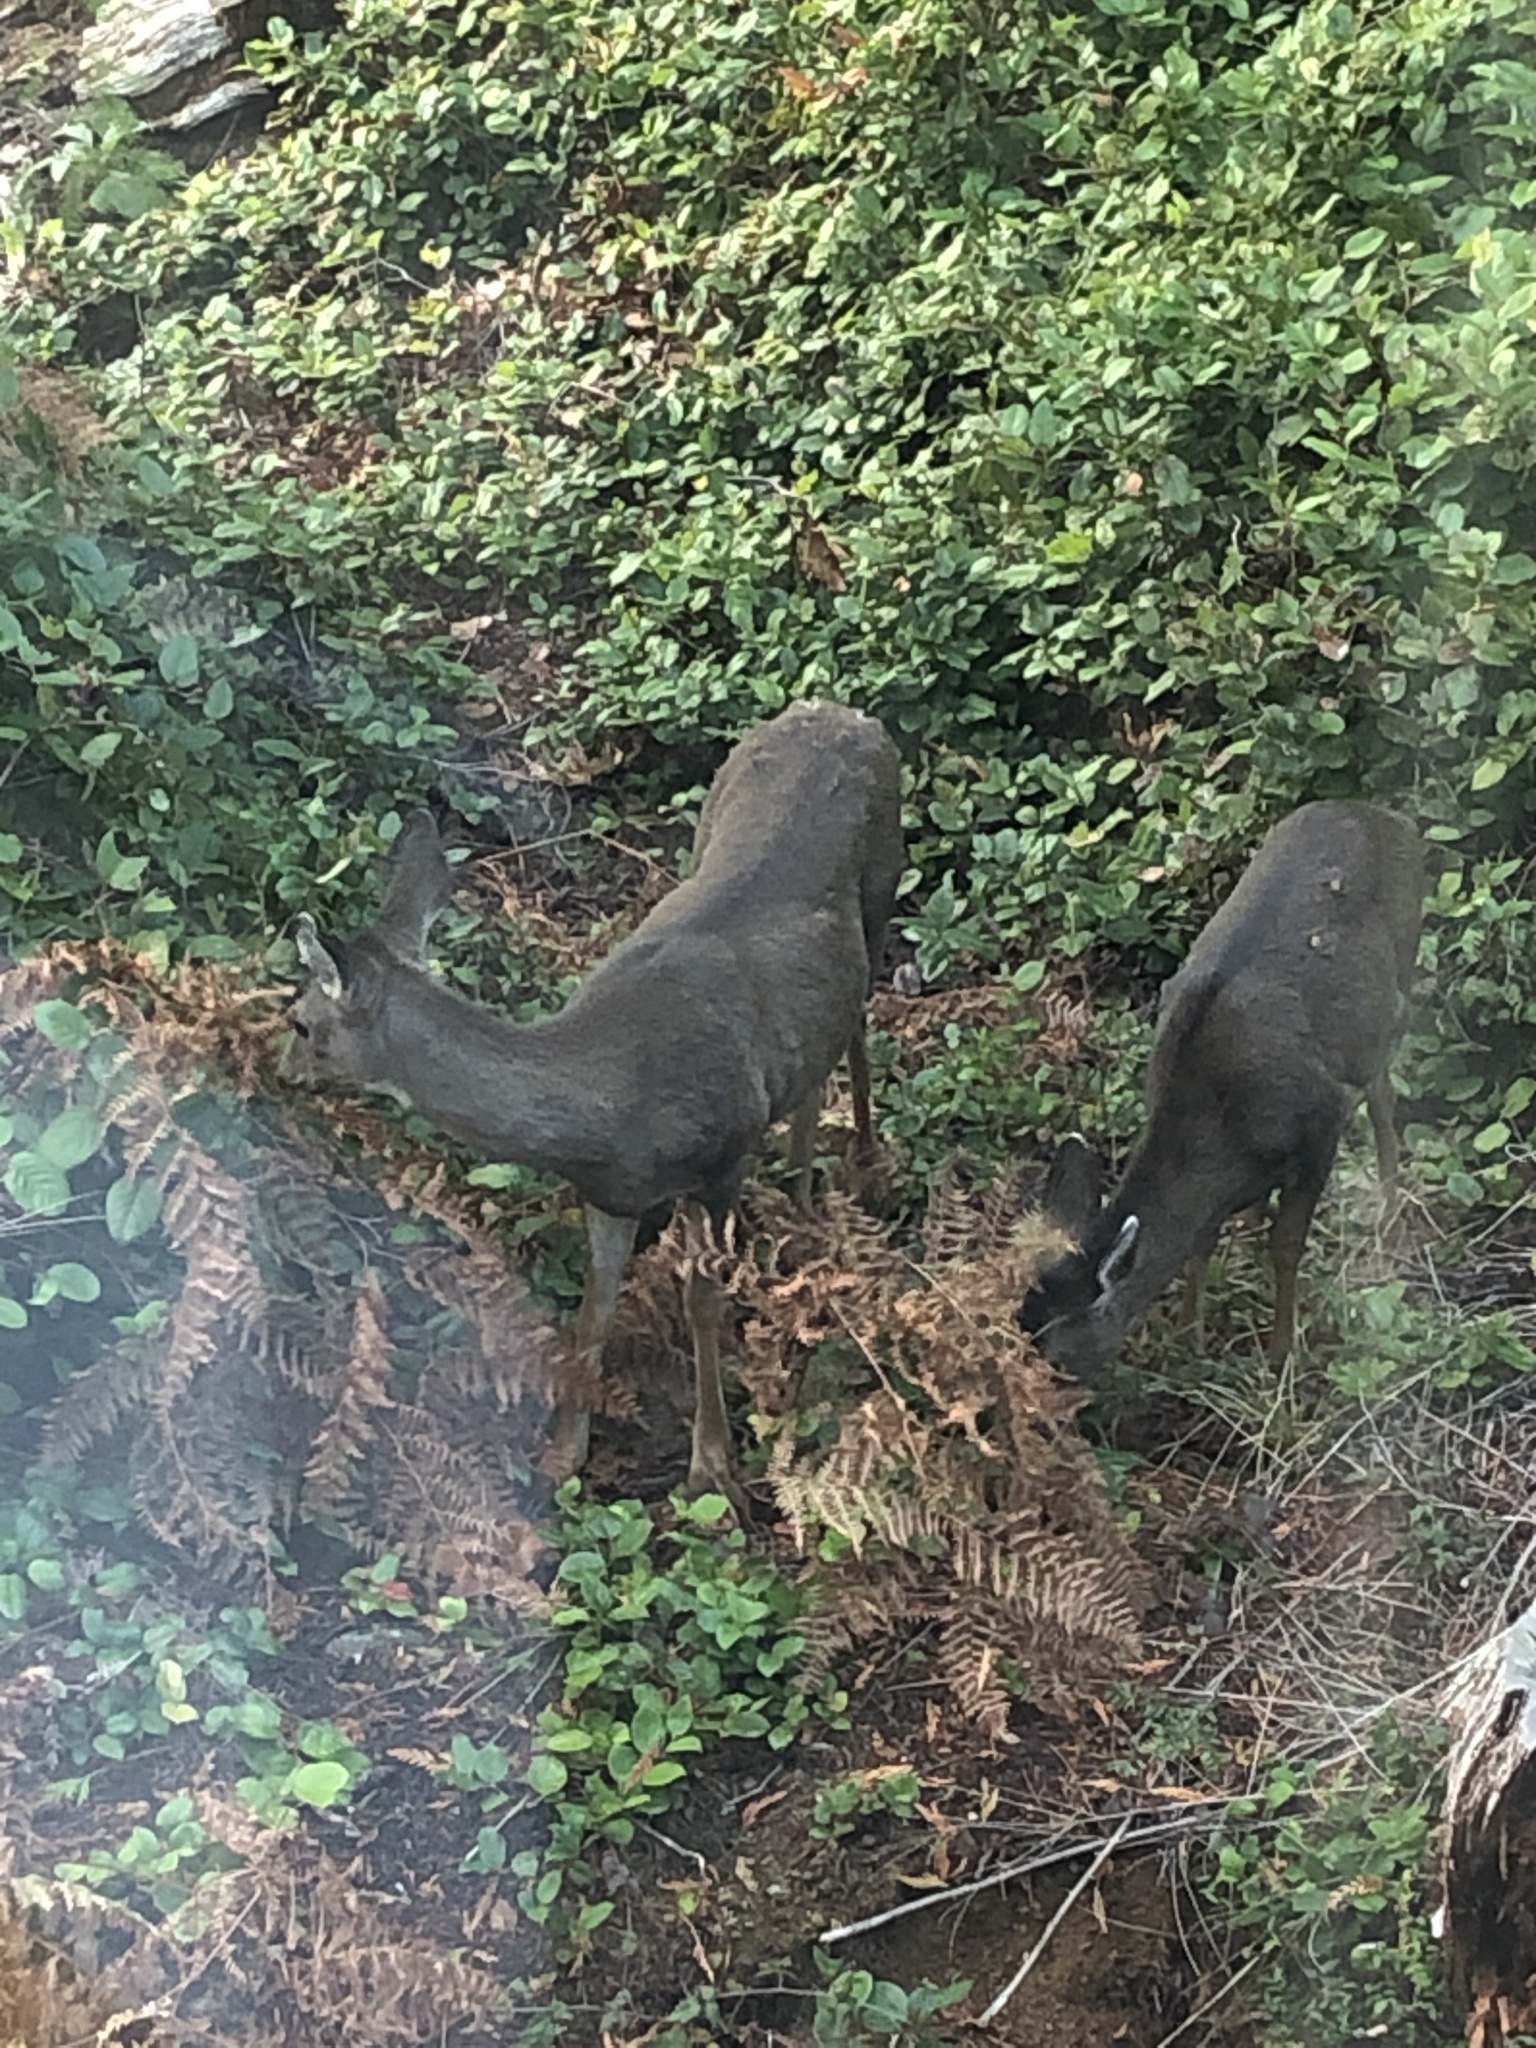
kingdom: Animalia
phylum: Chordata
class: Mammalia
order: Artiodactyla
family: Cervidae
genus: Odocoileus
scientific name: Odocoileus hemionus
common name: Mule deer
